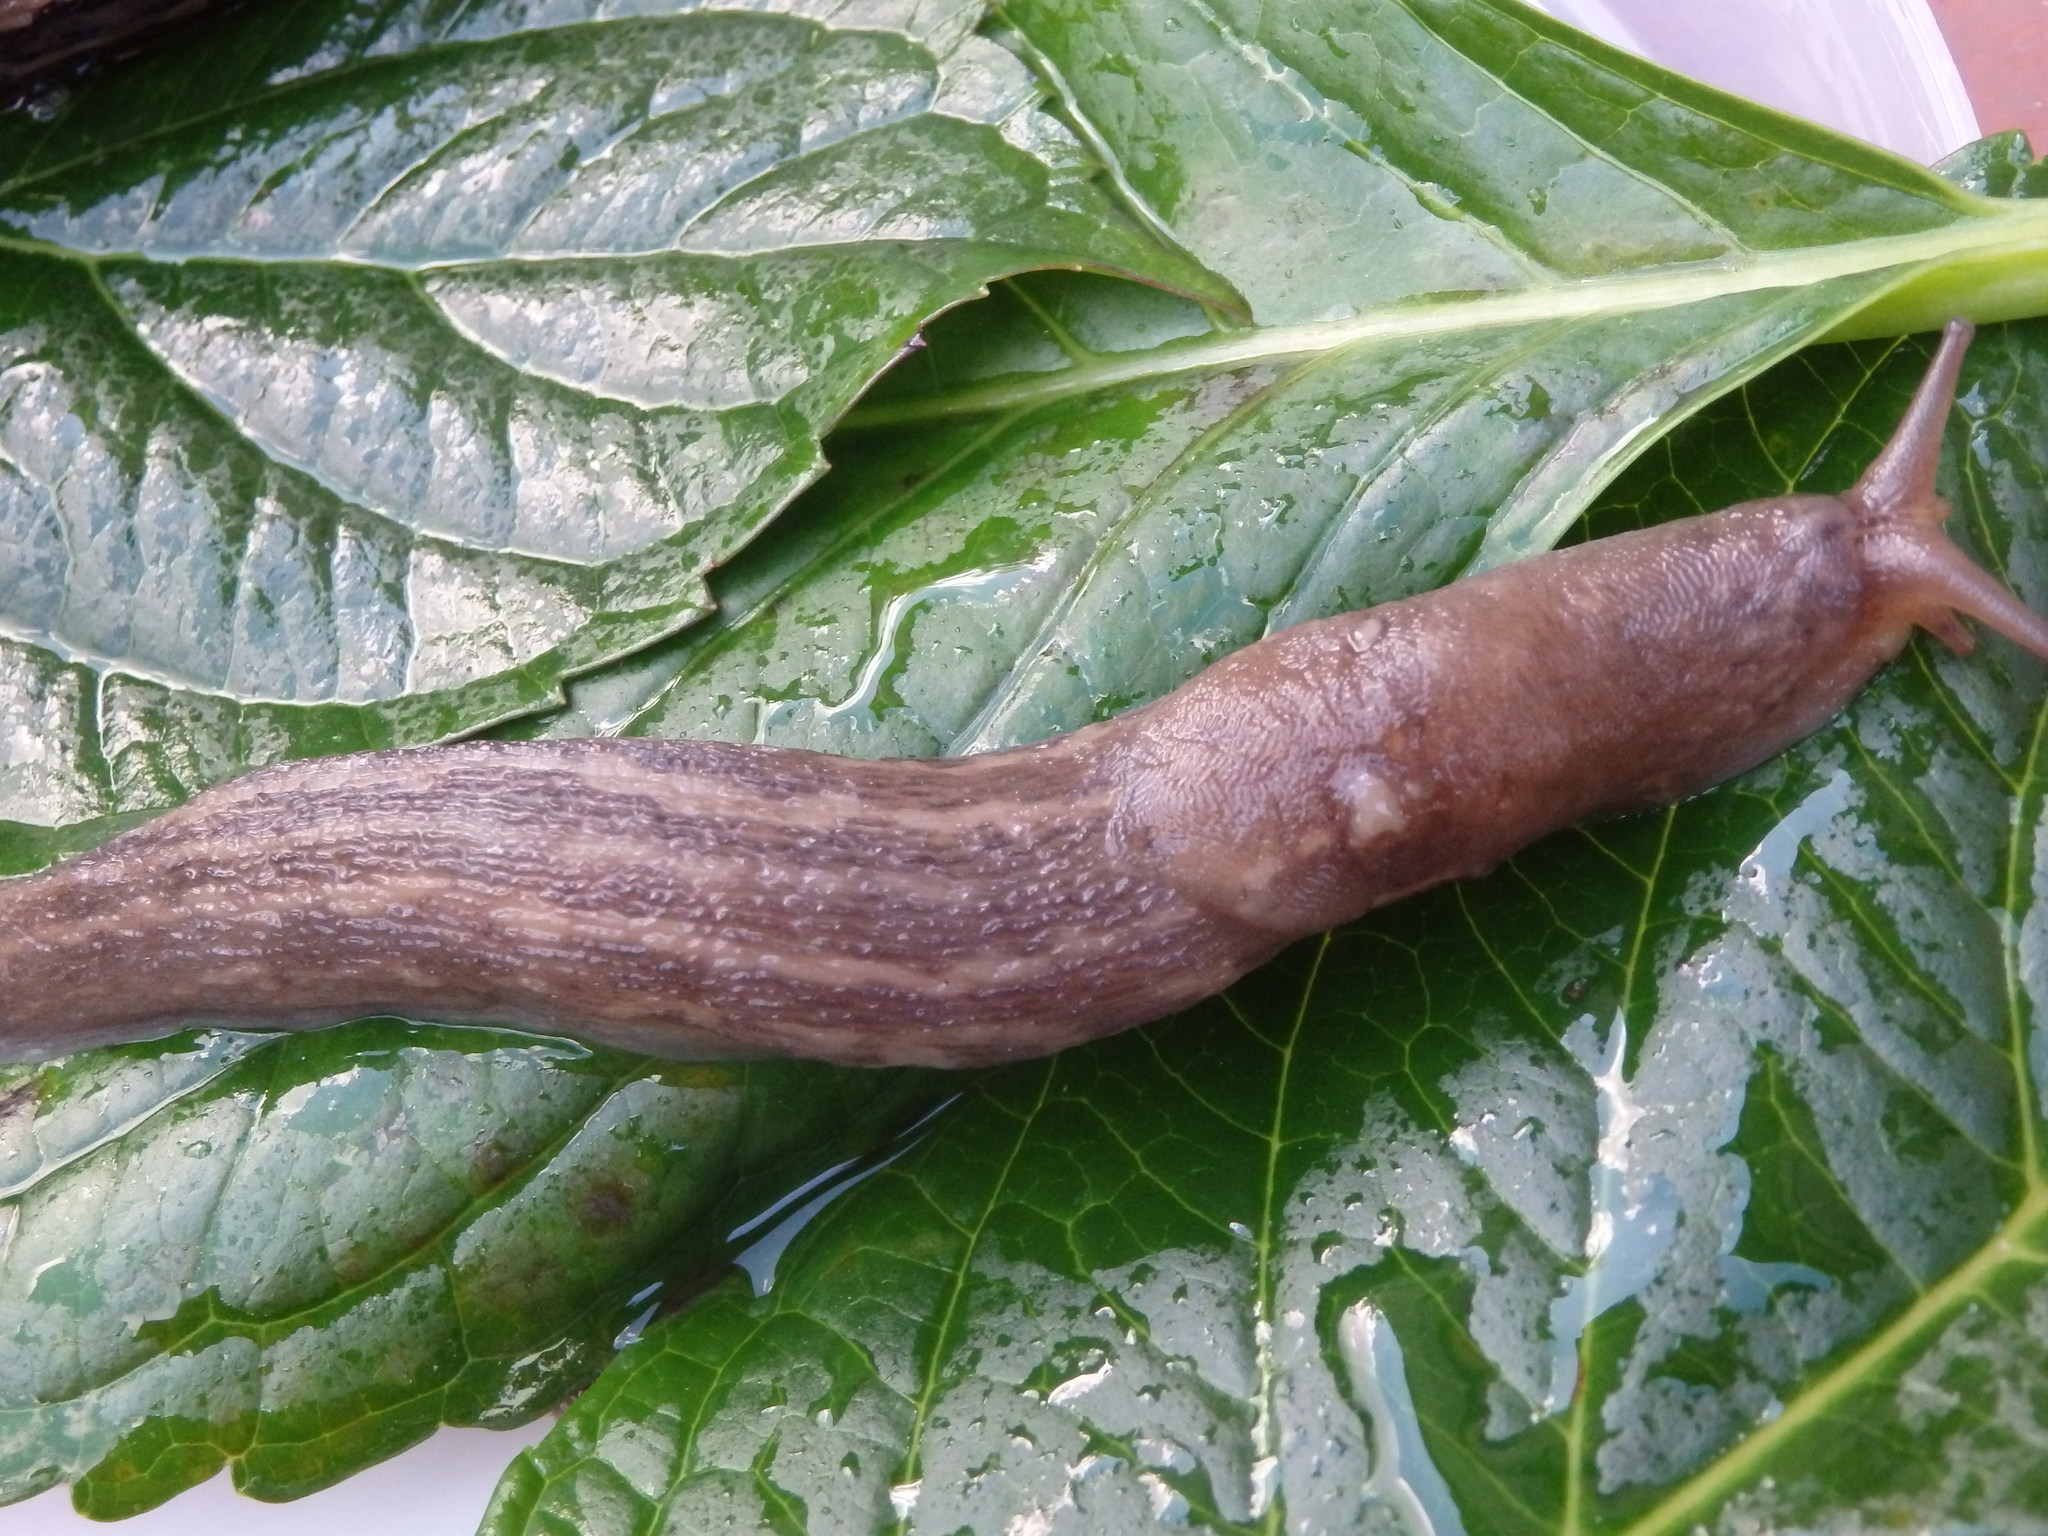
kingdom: Animalia
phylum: Mollusca
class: Gastropoda
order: Stylommatophora
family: Limacidae
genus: Limax
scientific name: Limax maximus
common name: Great grey slug
